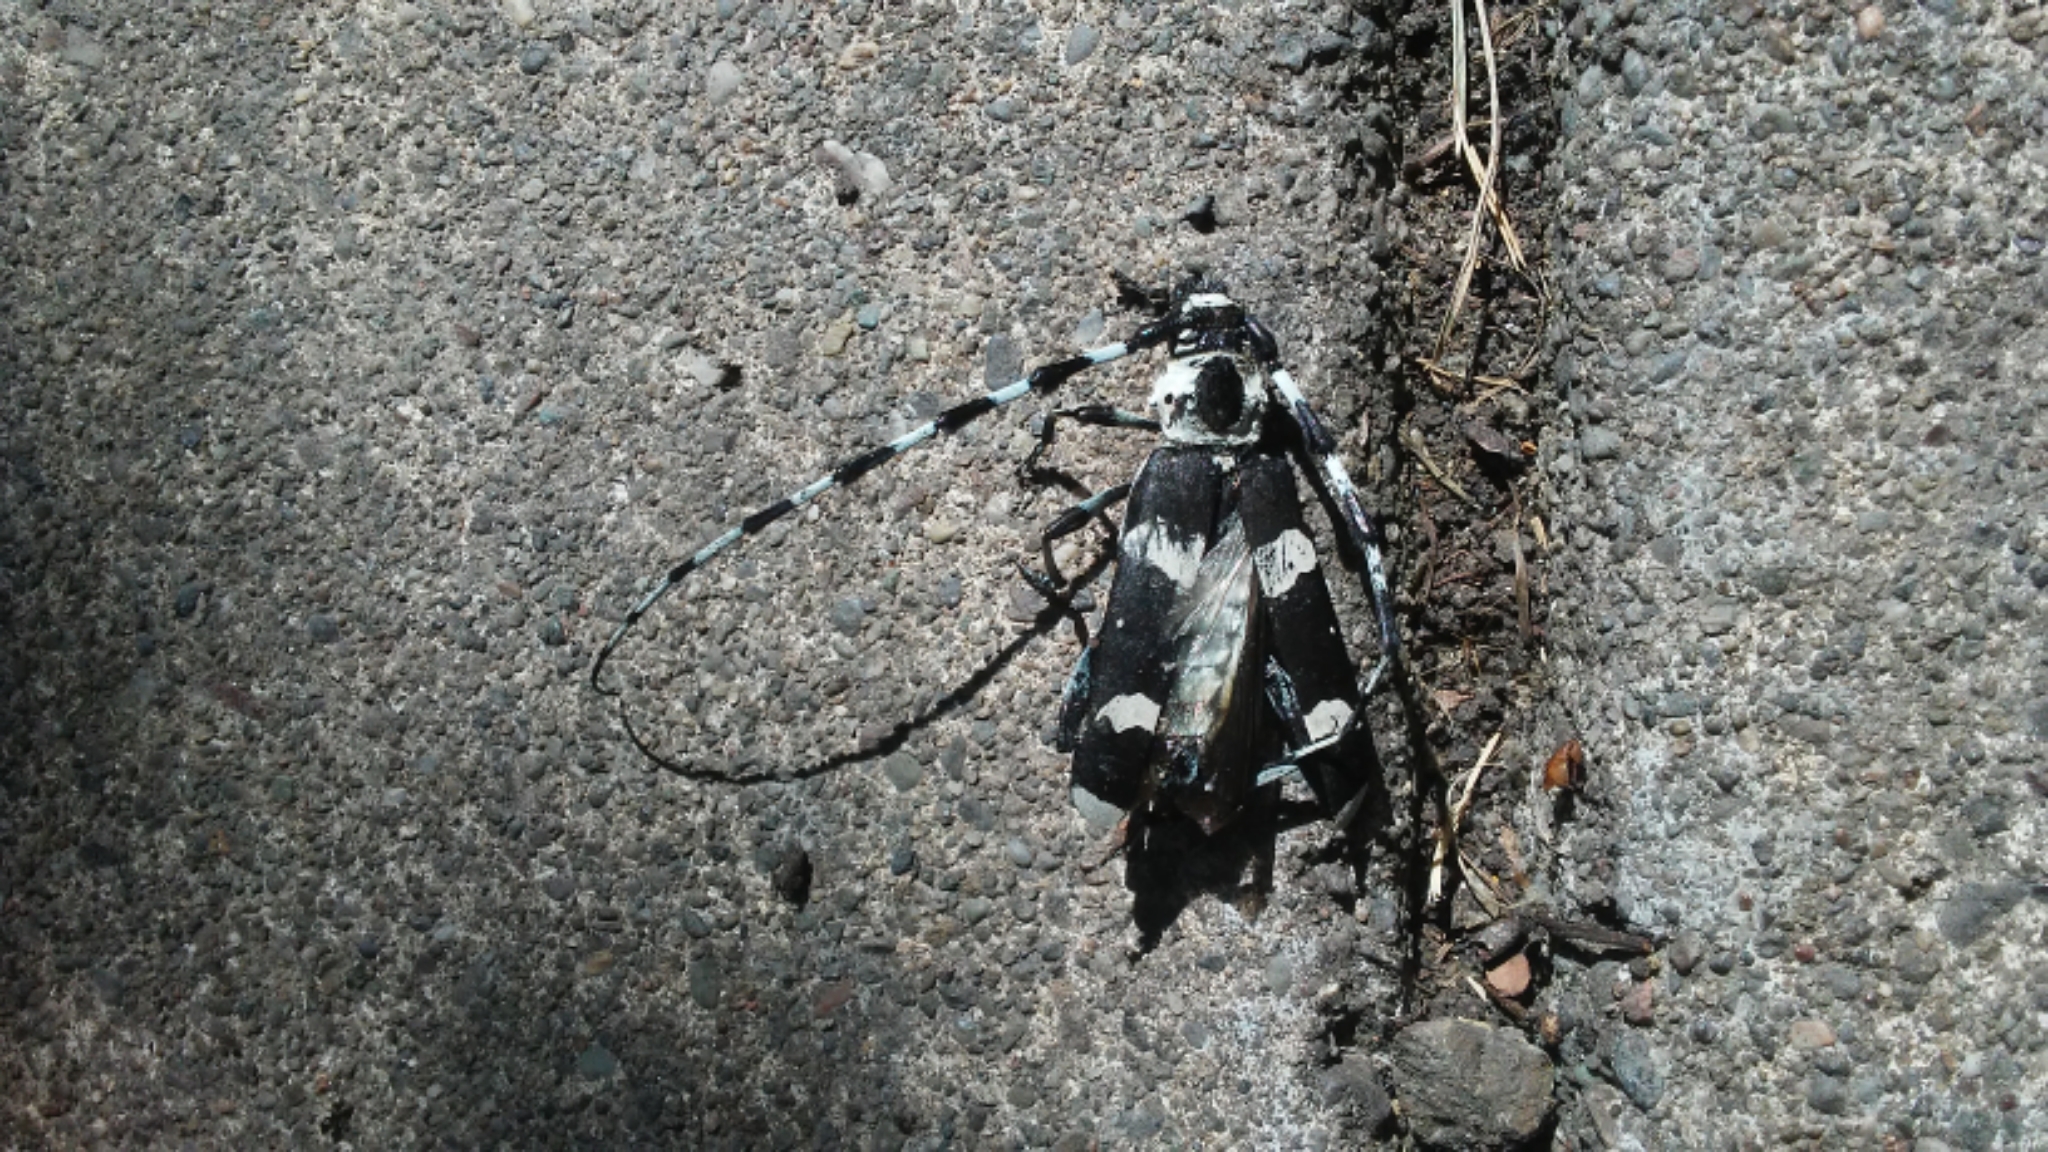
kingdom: Animalia
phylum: Arthropoda
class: Insecta
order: Coleoptera
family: Cerambycidae
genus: Rosalia
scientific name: Rosalia funebris
